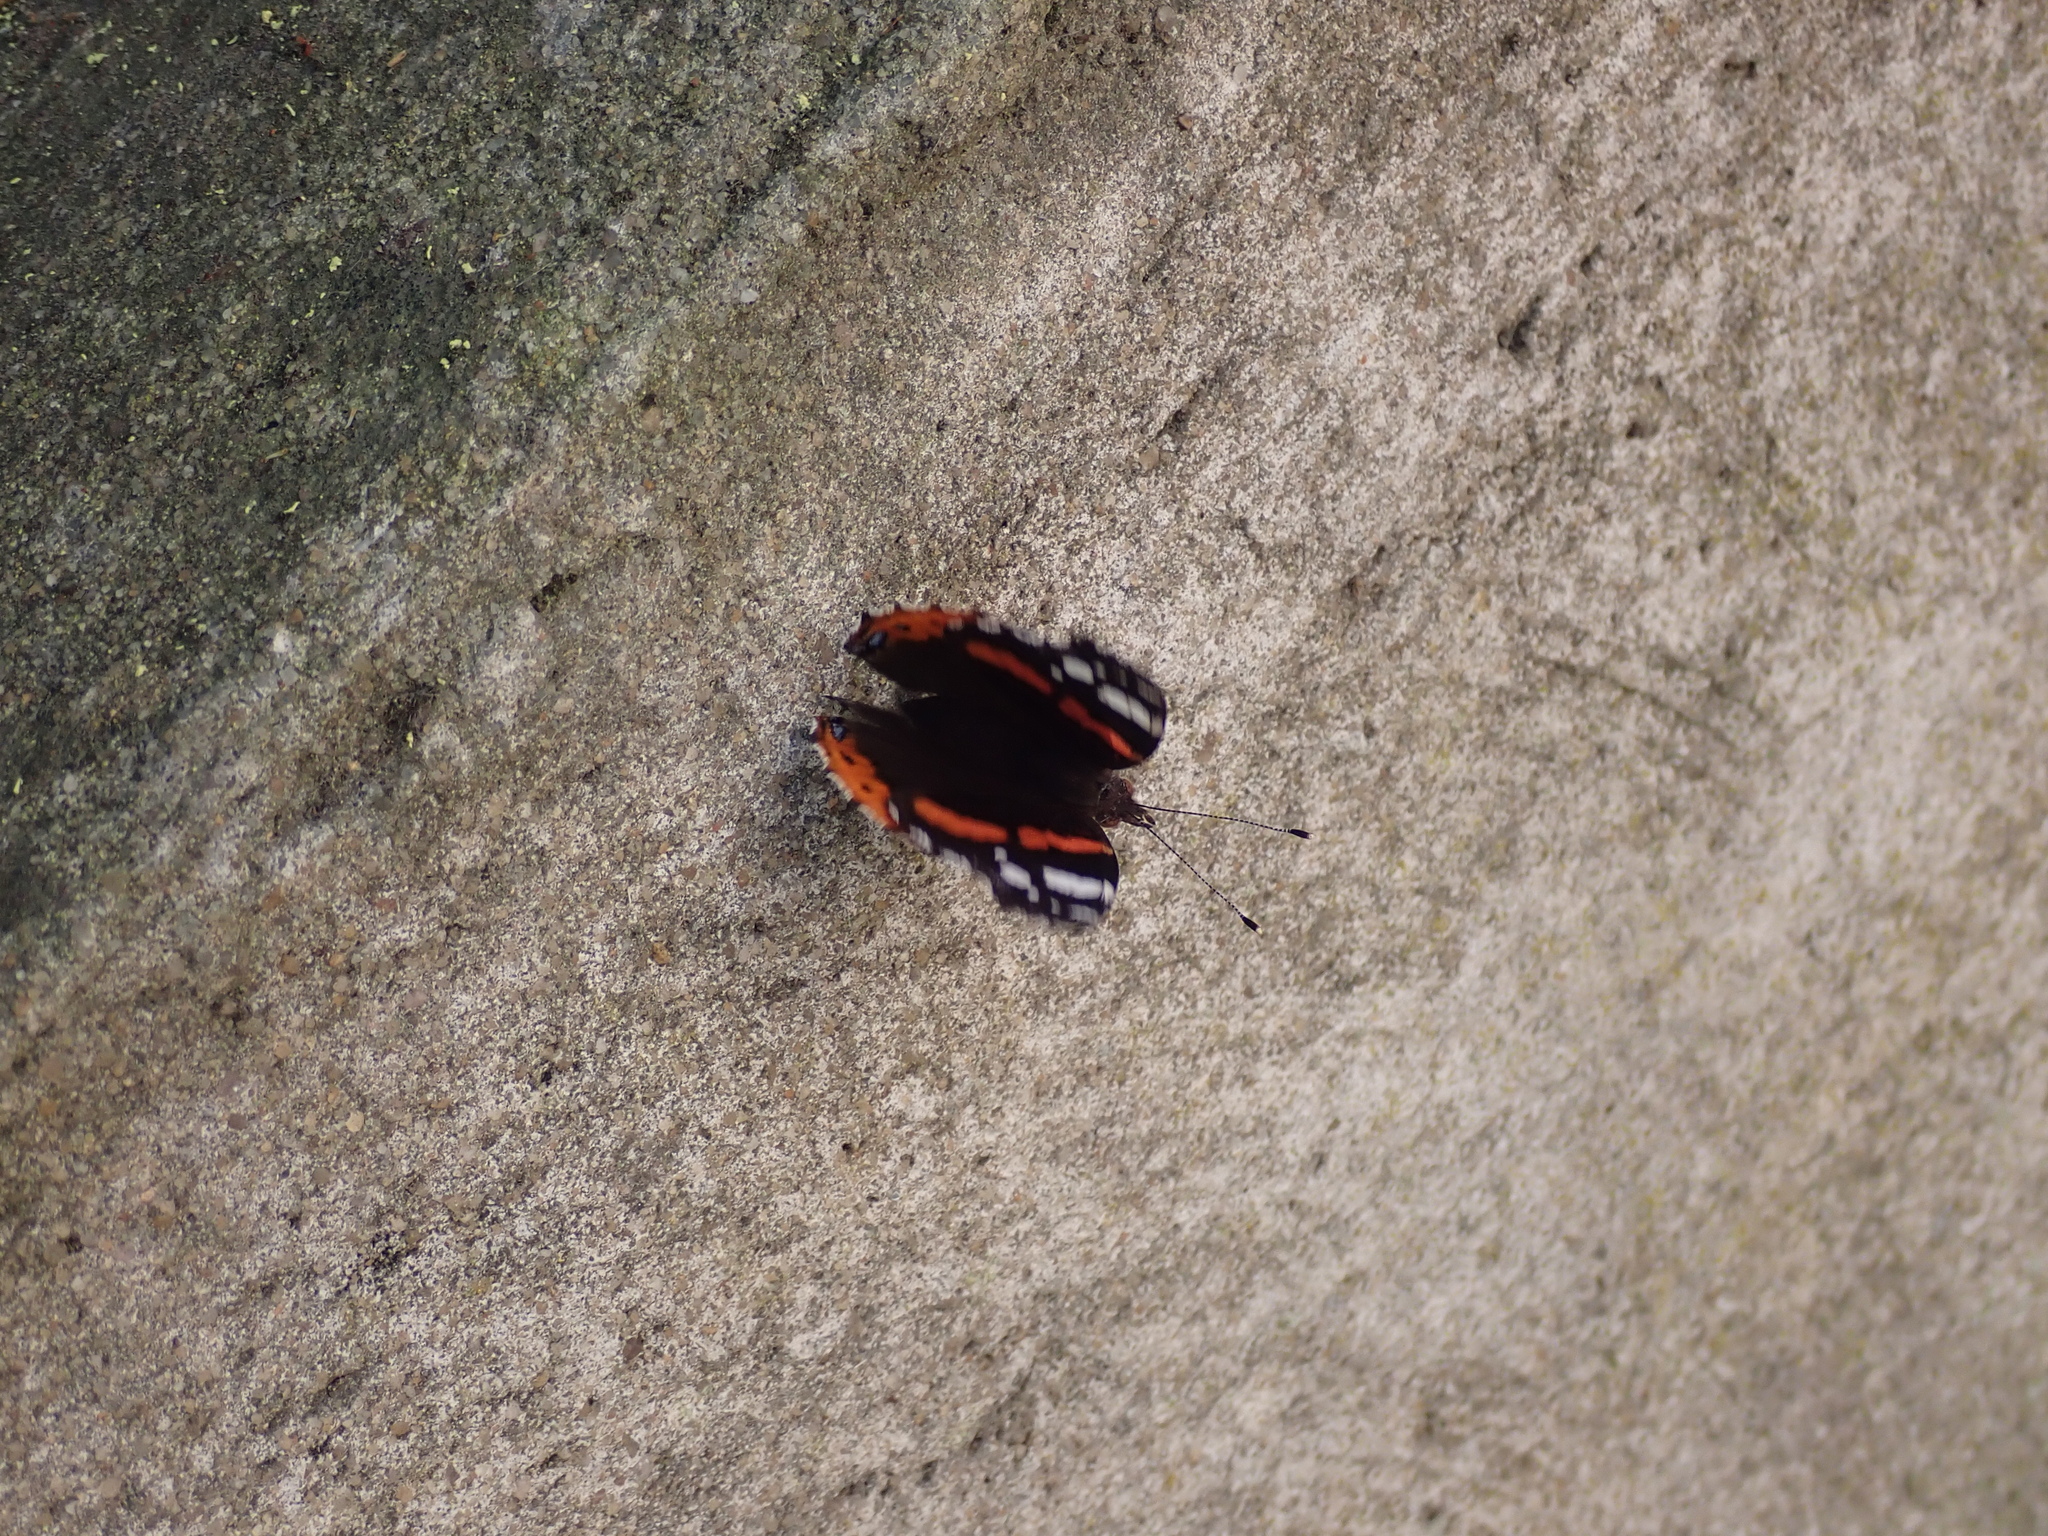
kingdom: Animalia
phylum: Arthropoda
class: Insecta
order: Lepidoptera
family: Nymphalidae
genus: Vanessa
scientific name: Vanessa atalanta
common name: Red admiral
